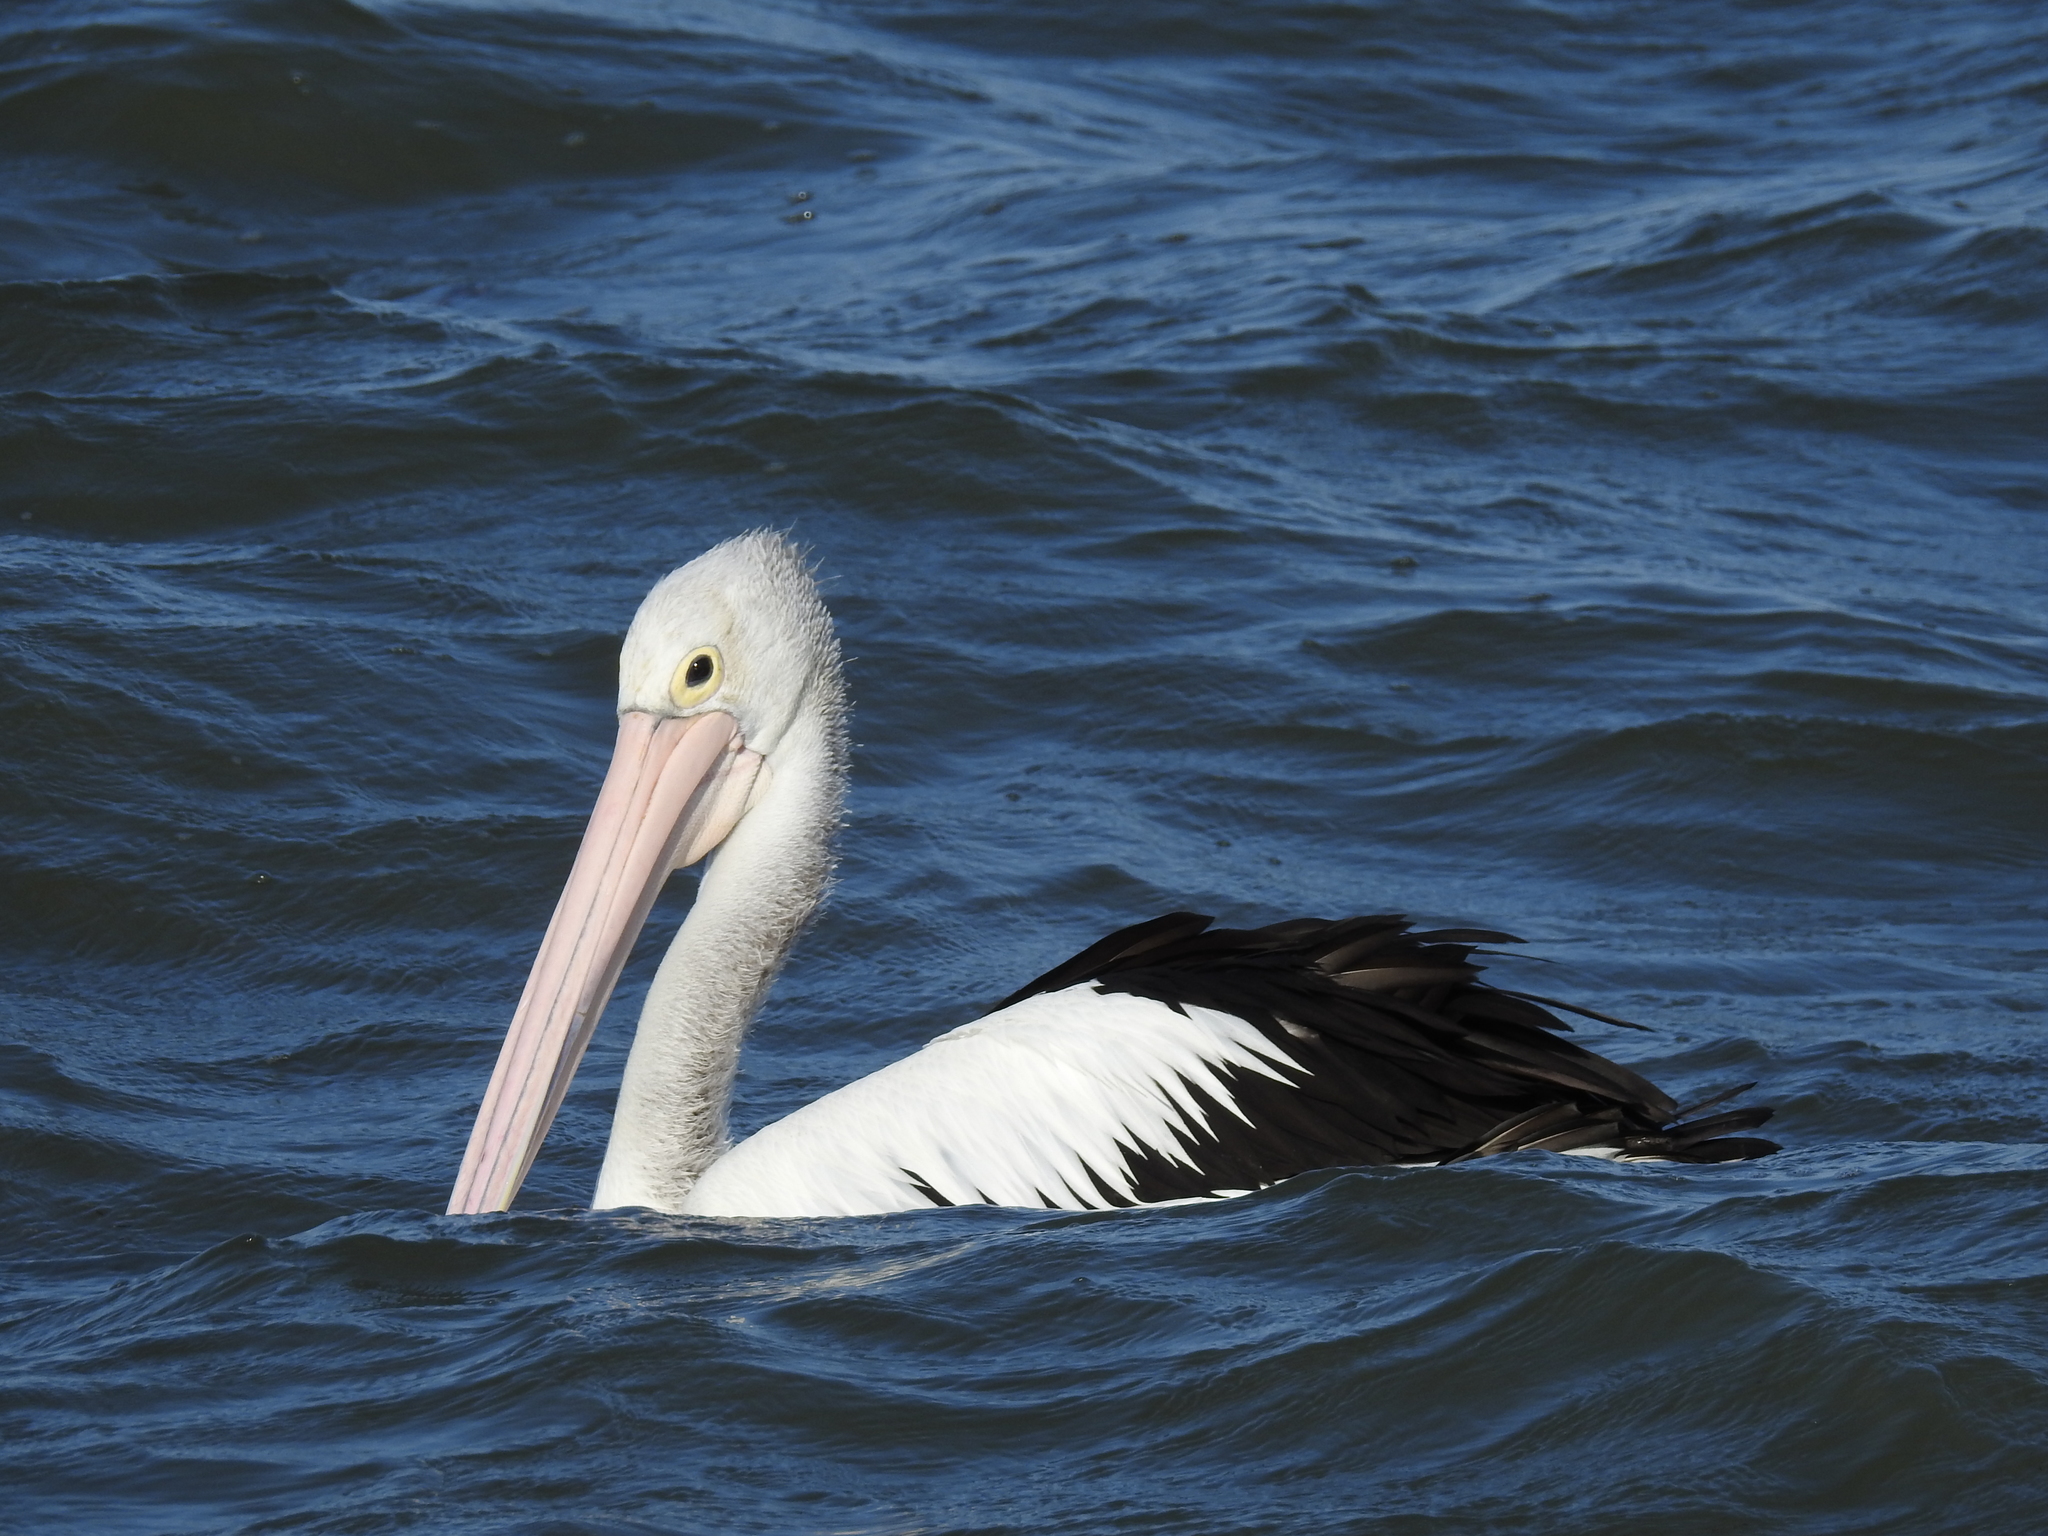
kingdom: Animalia
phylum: Chordata
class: Aves
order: Pelecaniformes
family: Pelecanidae
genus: Pelecanus
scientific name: Pelecanus conspicillatus
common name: Australian pelican
